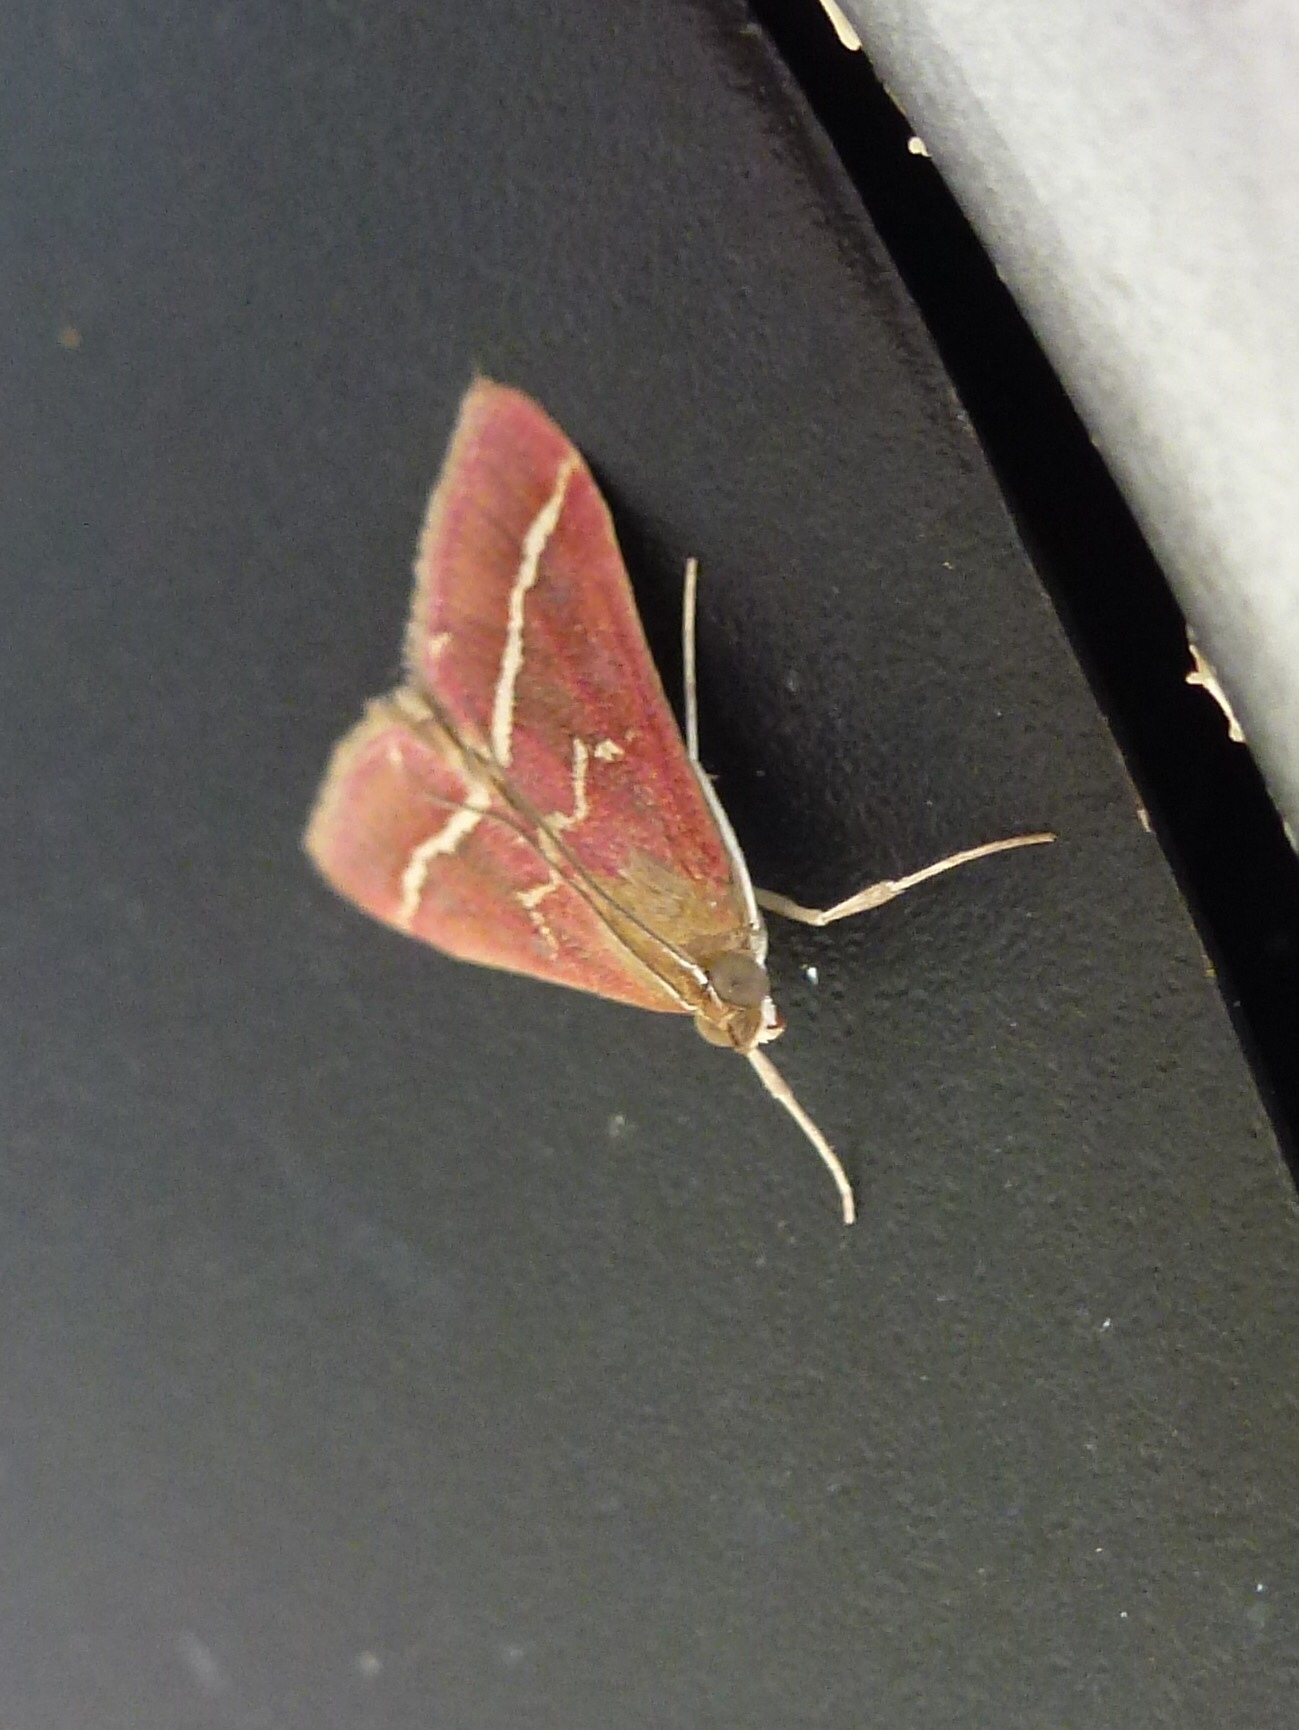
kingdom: Animalia
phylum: Arthropoda
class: Insecta
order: Lepidoptera
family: Crambidae
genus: Pyrausta
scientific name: Pyrausta volupialis
